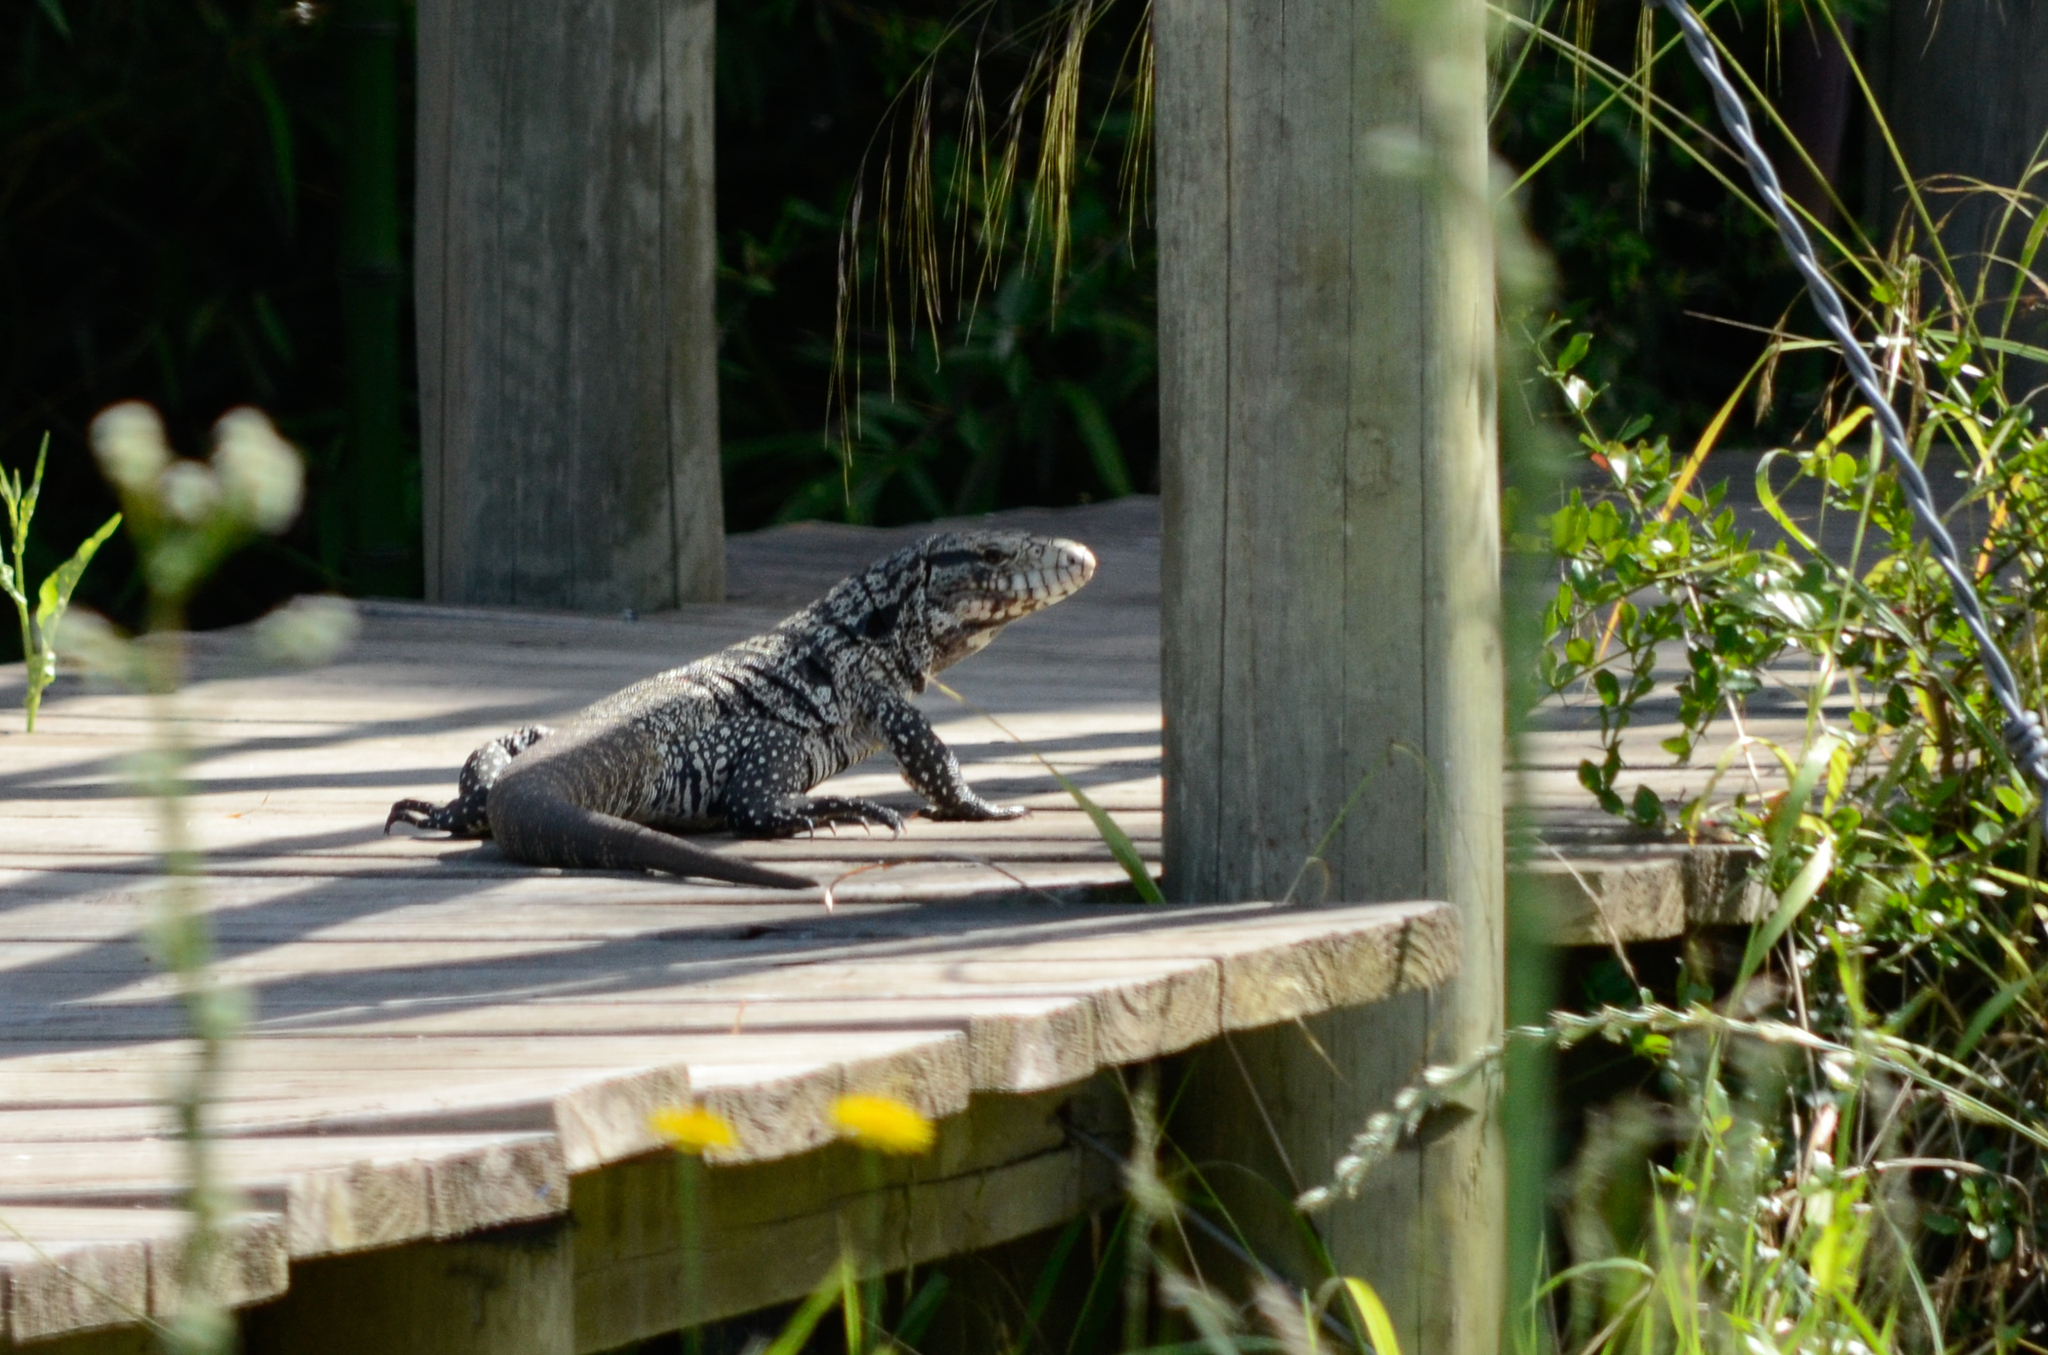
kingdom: Animalia
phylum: Chordata
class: Squamata
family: Teiidae
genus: Salvator
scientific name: Salvator merianae
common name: Argentine black and white tegu
